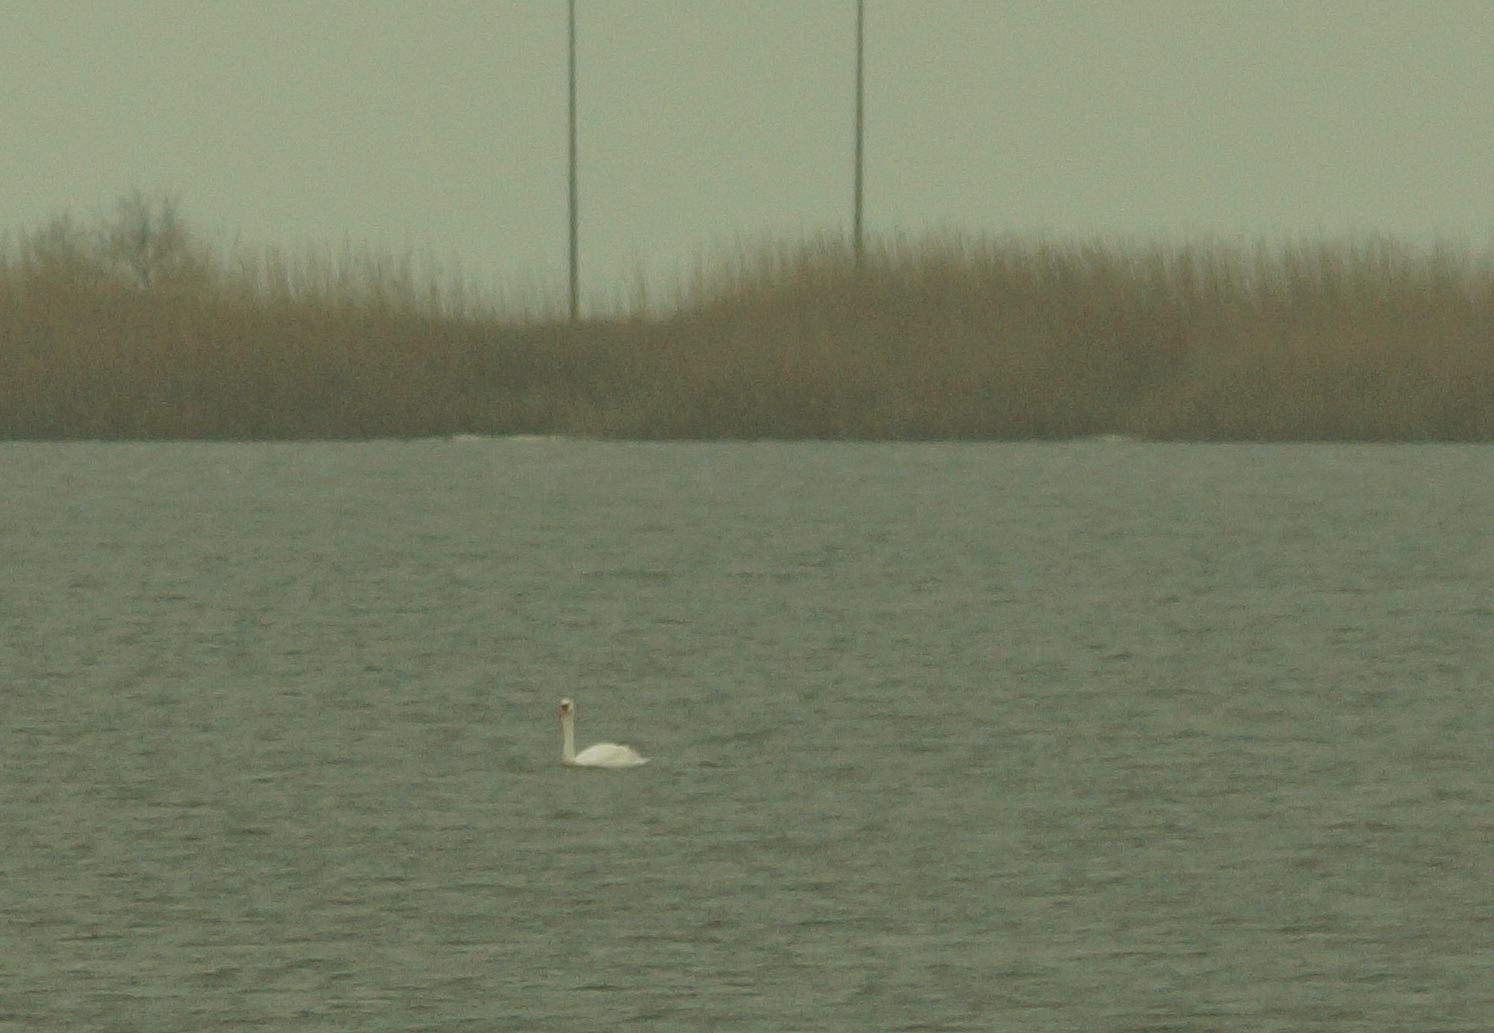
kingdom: Animalia
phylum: Chordata
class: Aves
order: Anseriformes
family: Anatidae
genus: Cygnus
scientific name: Cygnus olor
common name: Mute swan
